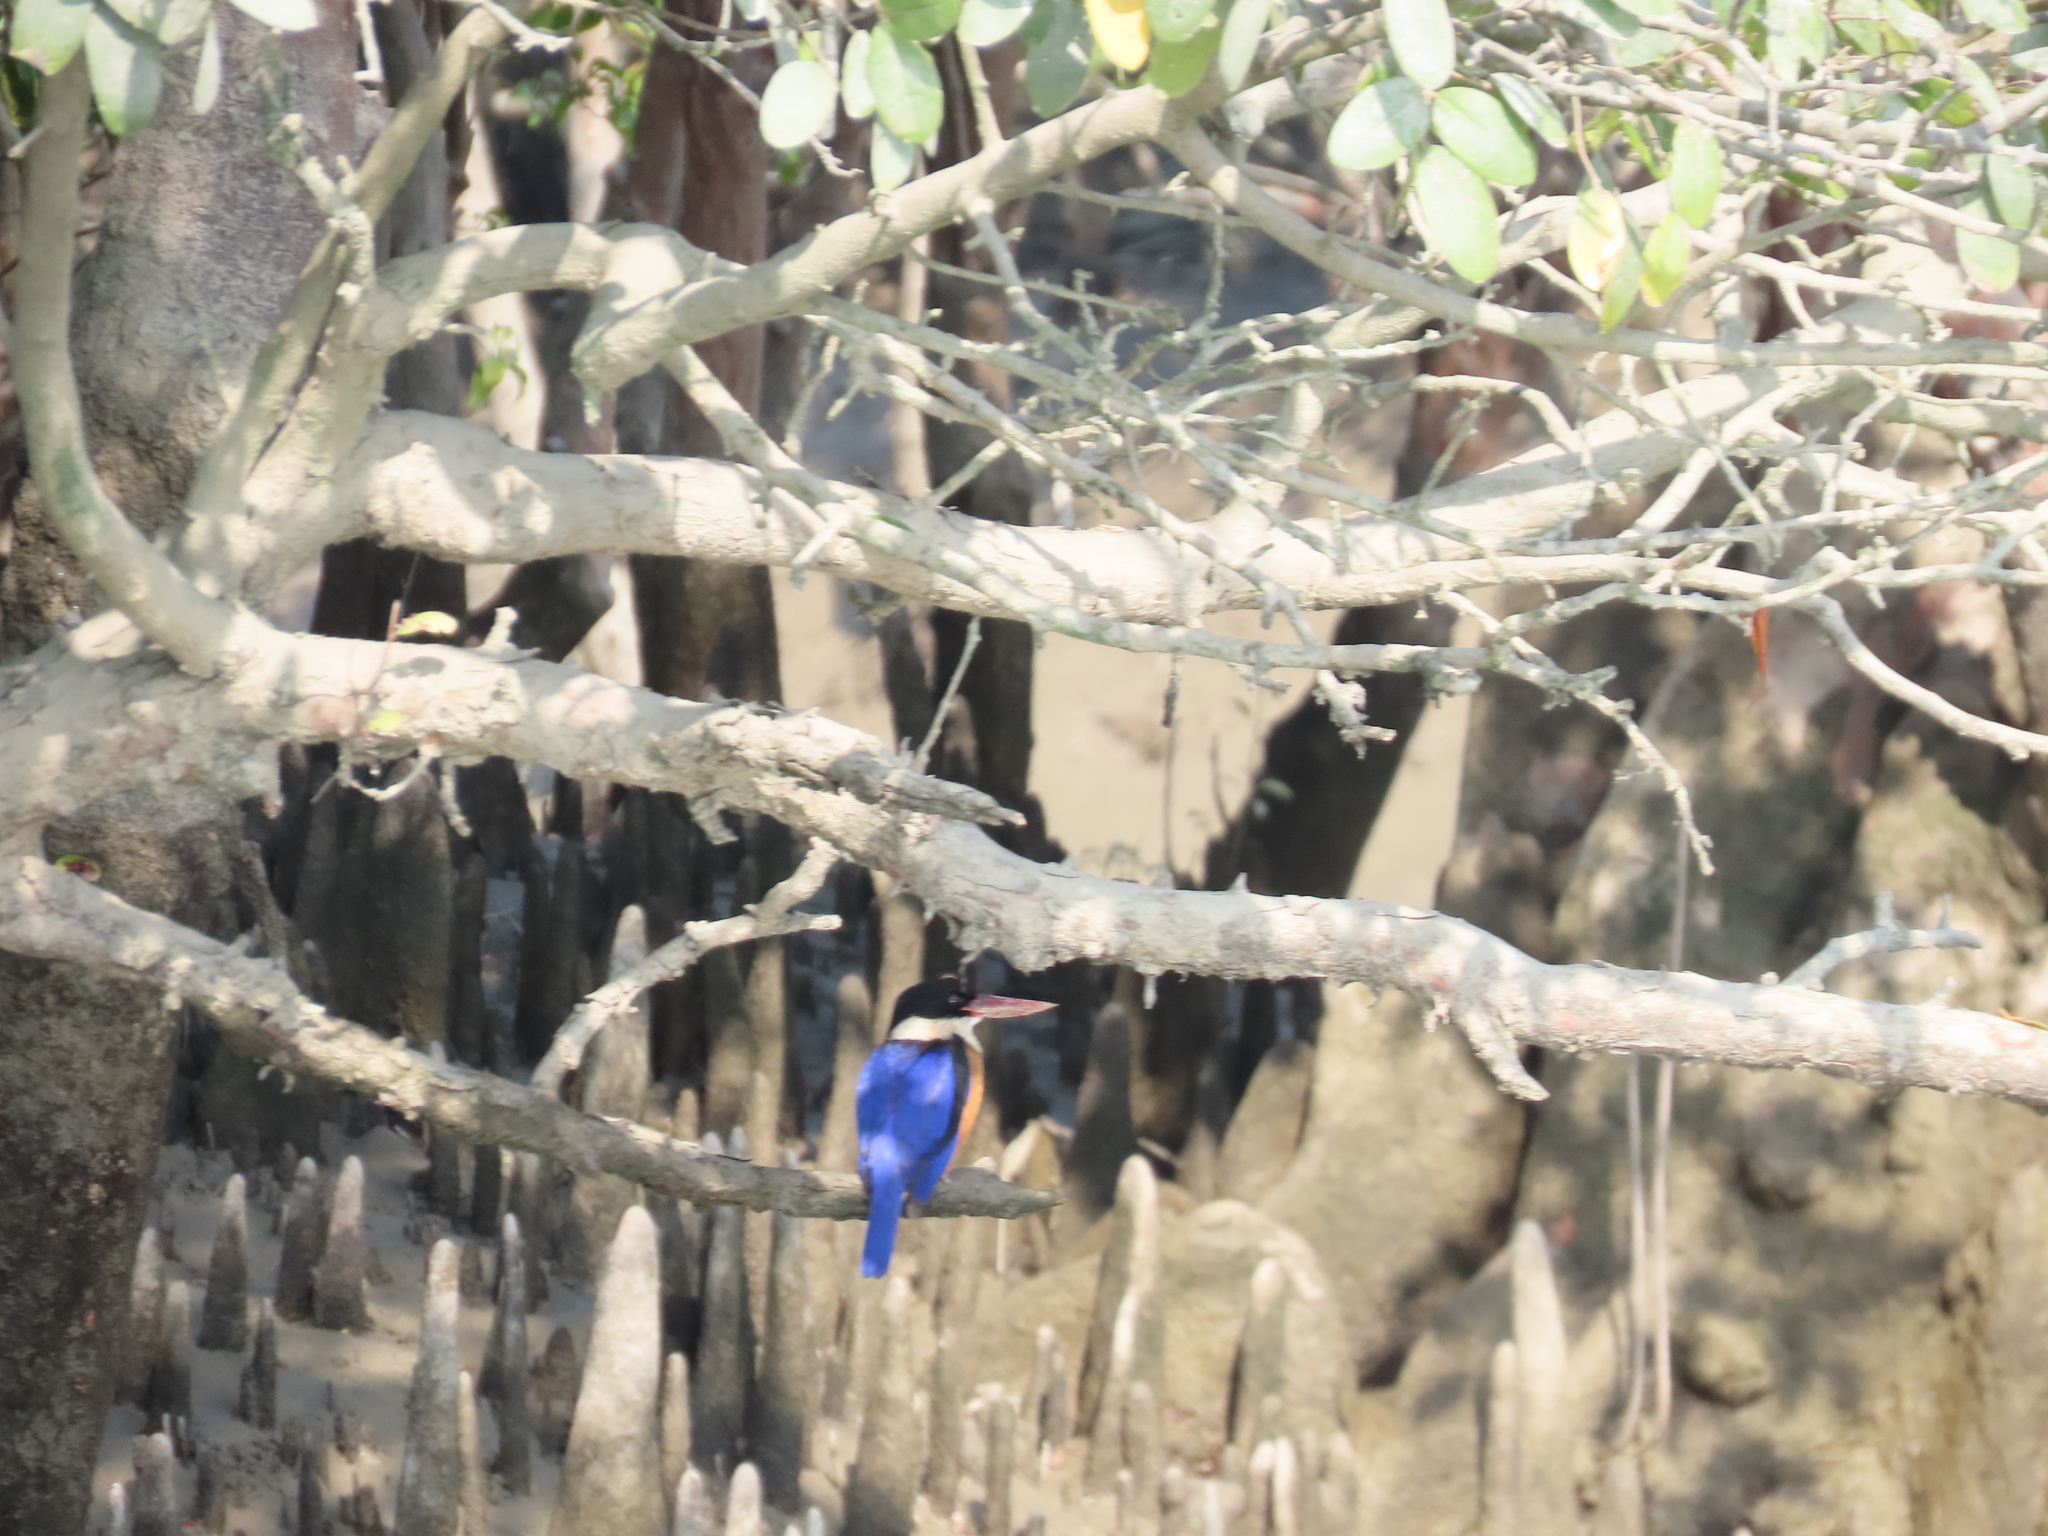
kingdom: Animalia
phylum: Chordata
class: Aves
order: Coraciiformes
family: Alcedinidae
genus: Halcyon
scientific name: Halcyon pileata
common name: Black-capped kingfisher
